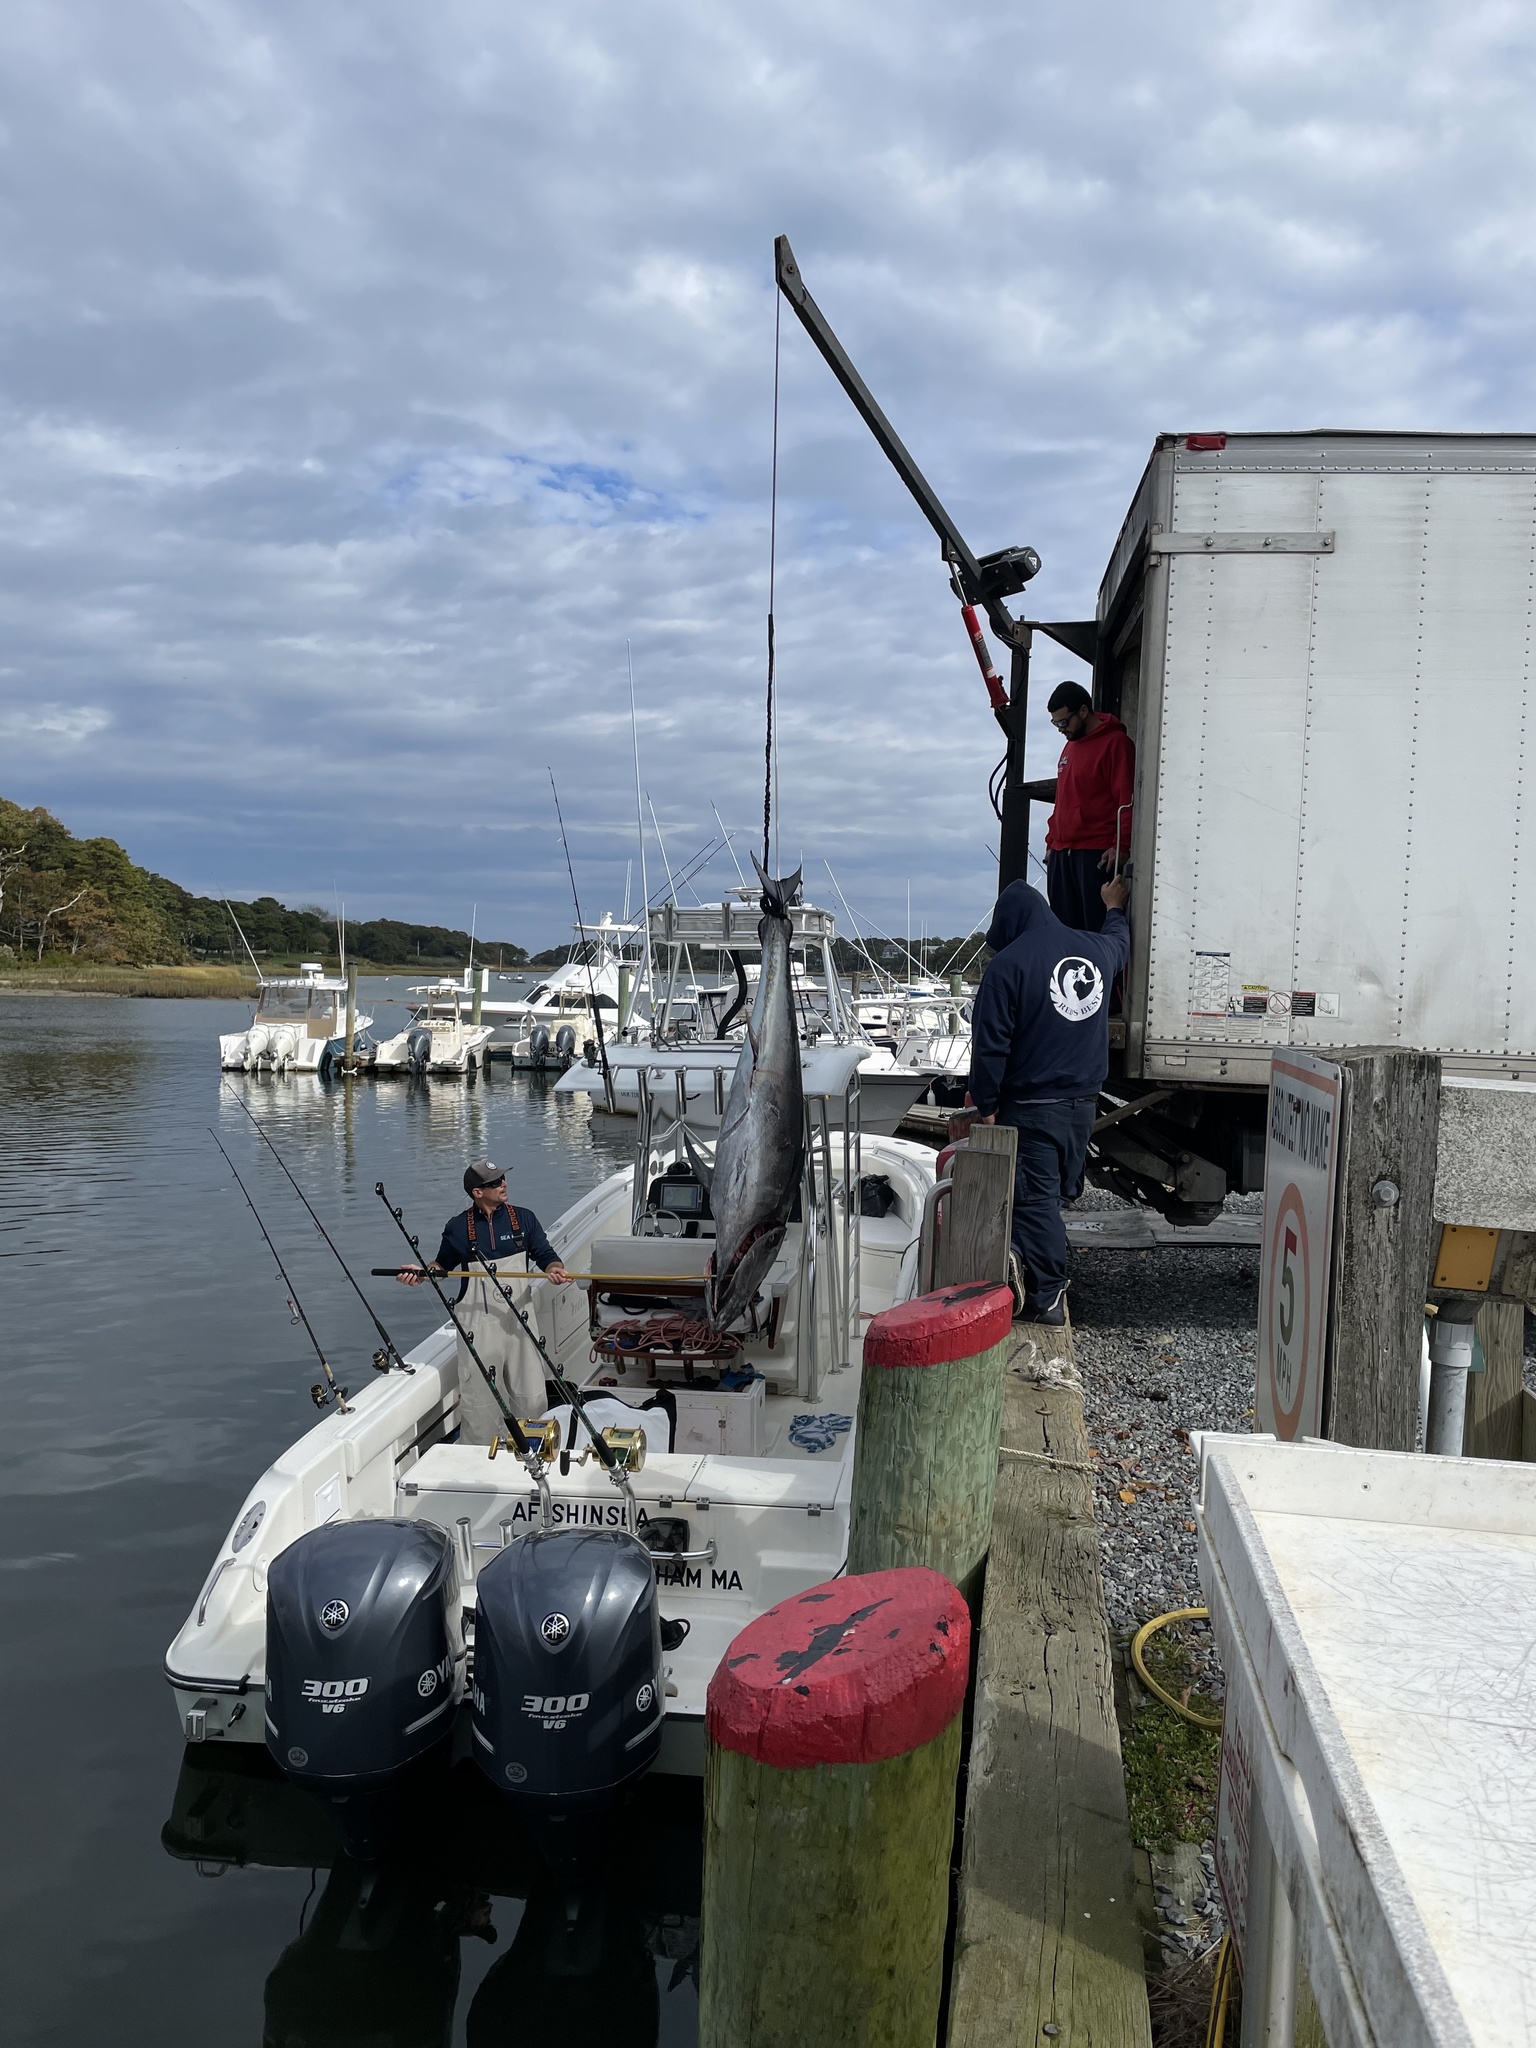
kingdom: Animalia
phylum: Chordata
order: Perciformes
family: Scombridae
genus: Thunnus
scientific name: Thunnus thynnus
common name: Bluefin tuna
